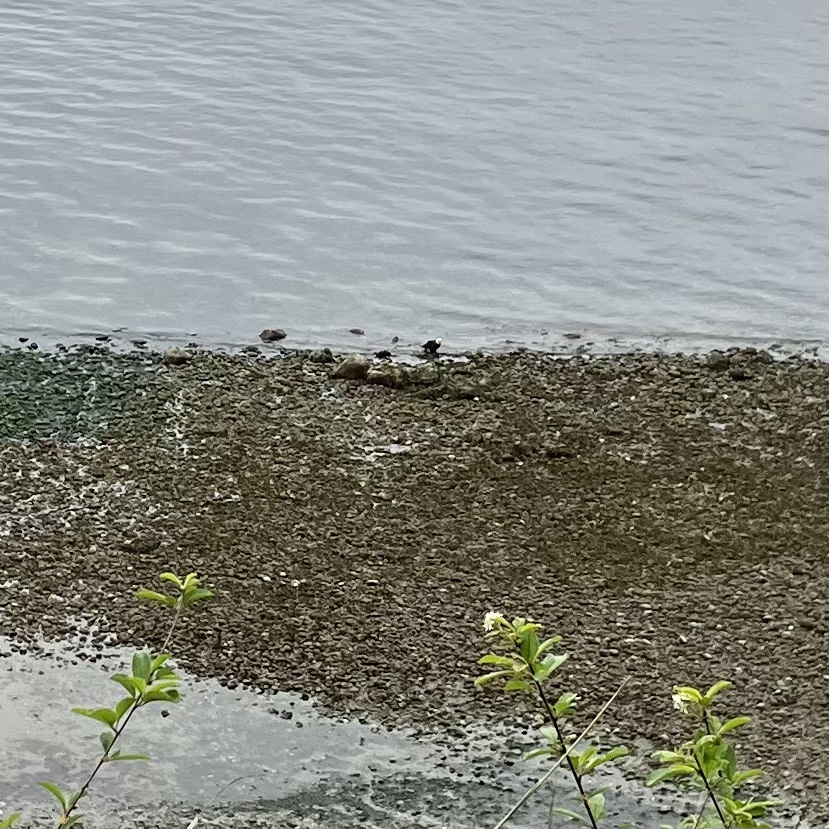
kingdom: Animalia
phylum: Chordata
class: Aves
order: Accipitriformes
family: Accipitridae
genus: Haliaeetus
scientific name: Haliaeetus leucocephalus
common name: Bald eagle
